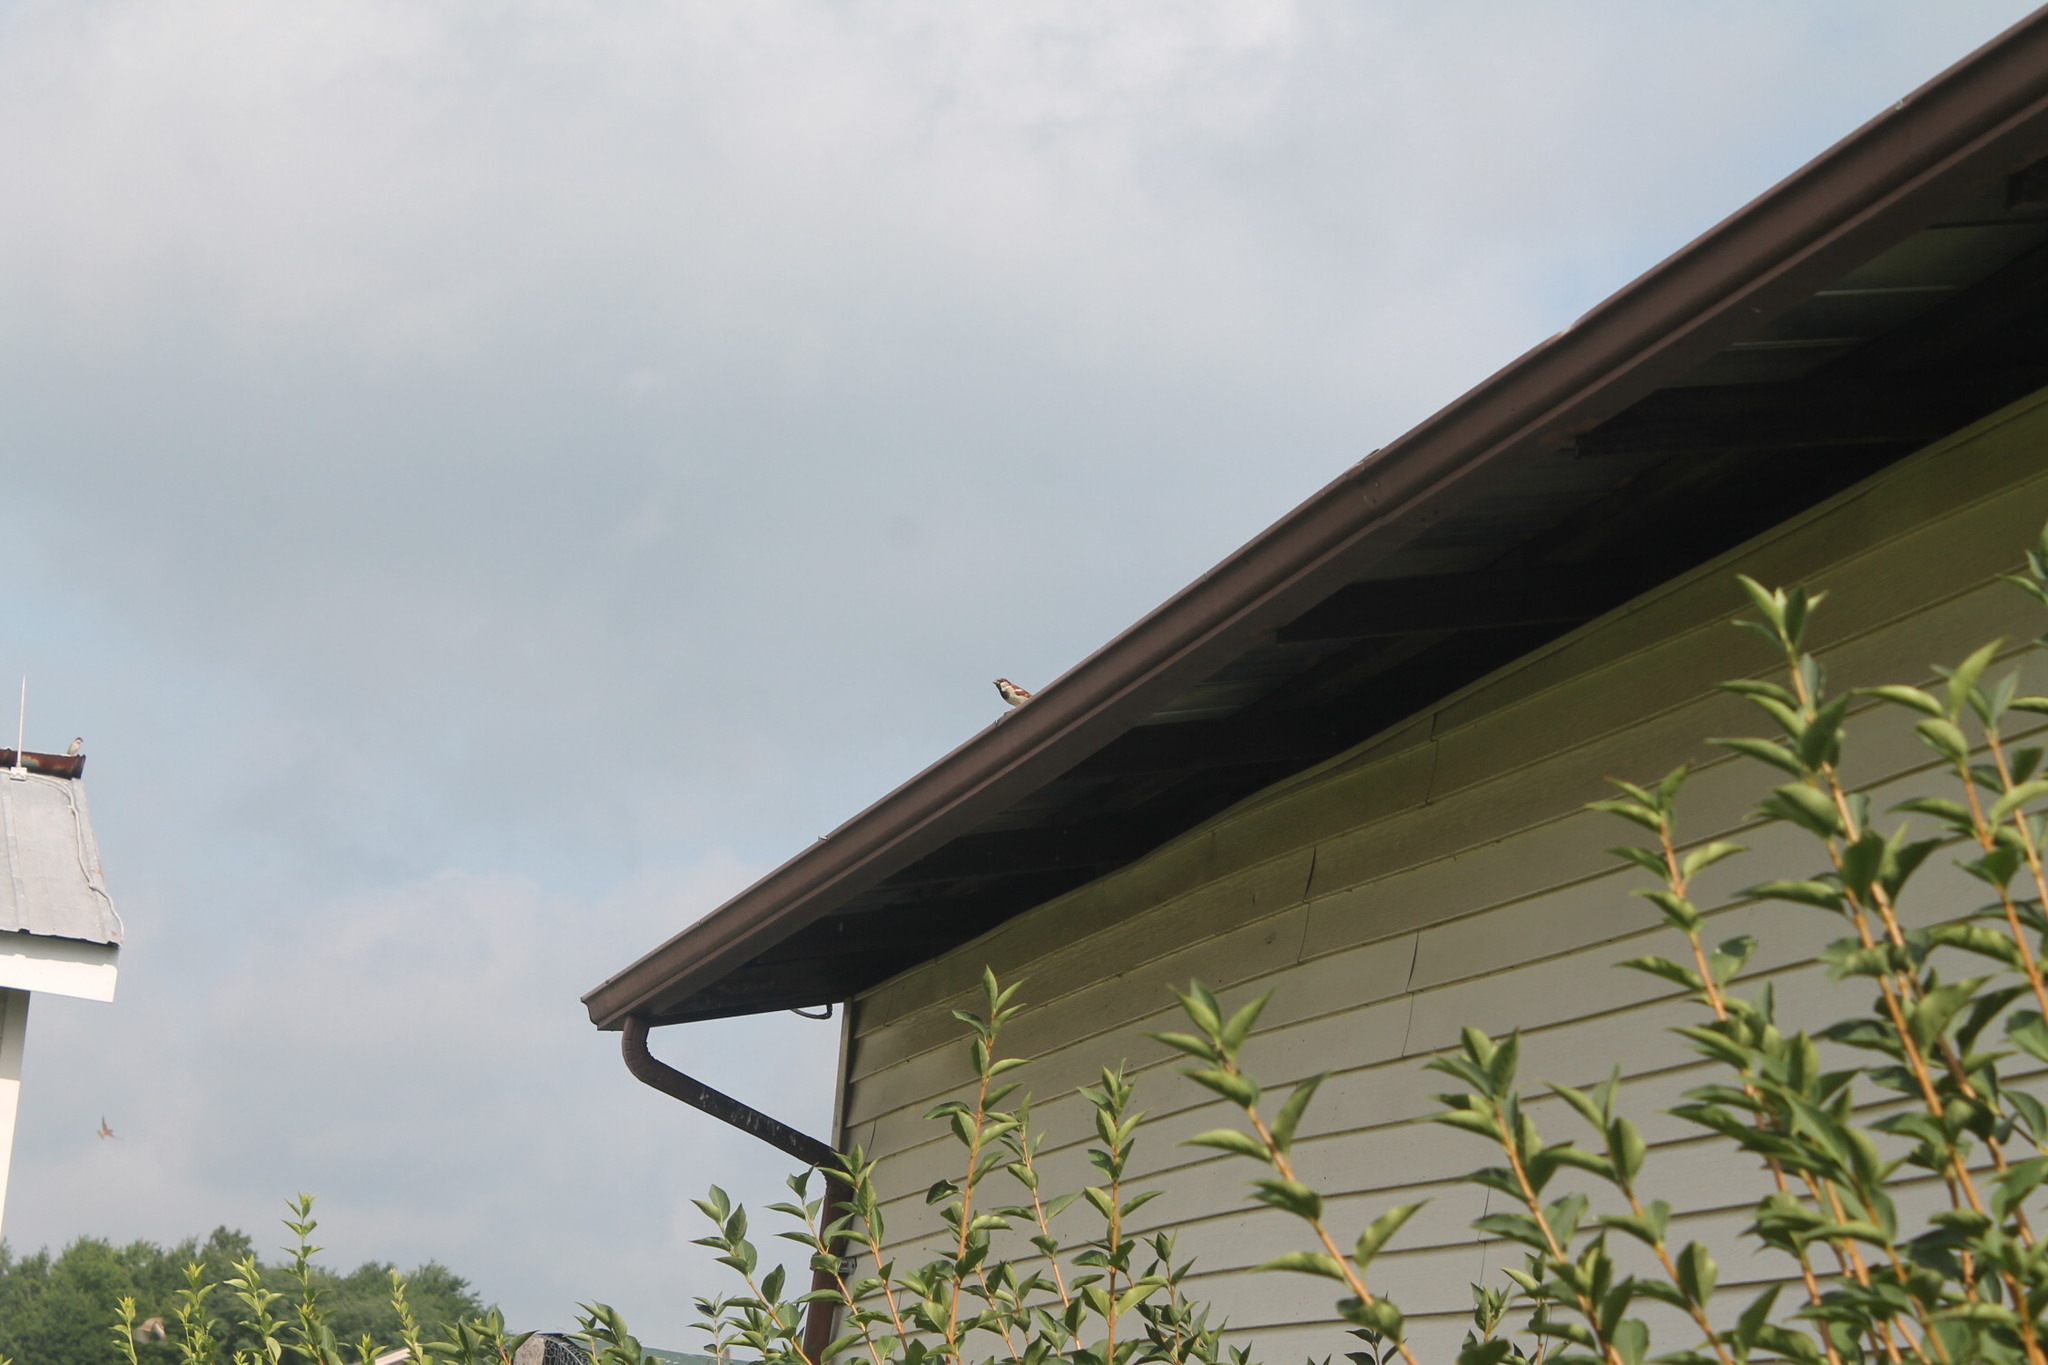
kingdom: Animalia
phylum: Chordata
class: Aves
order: Passeriformes
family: Passeridae
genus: Passer
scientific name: Passer domesticus
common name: House sparrow
